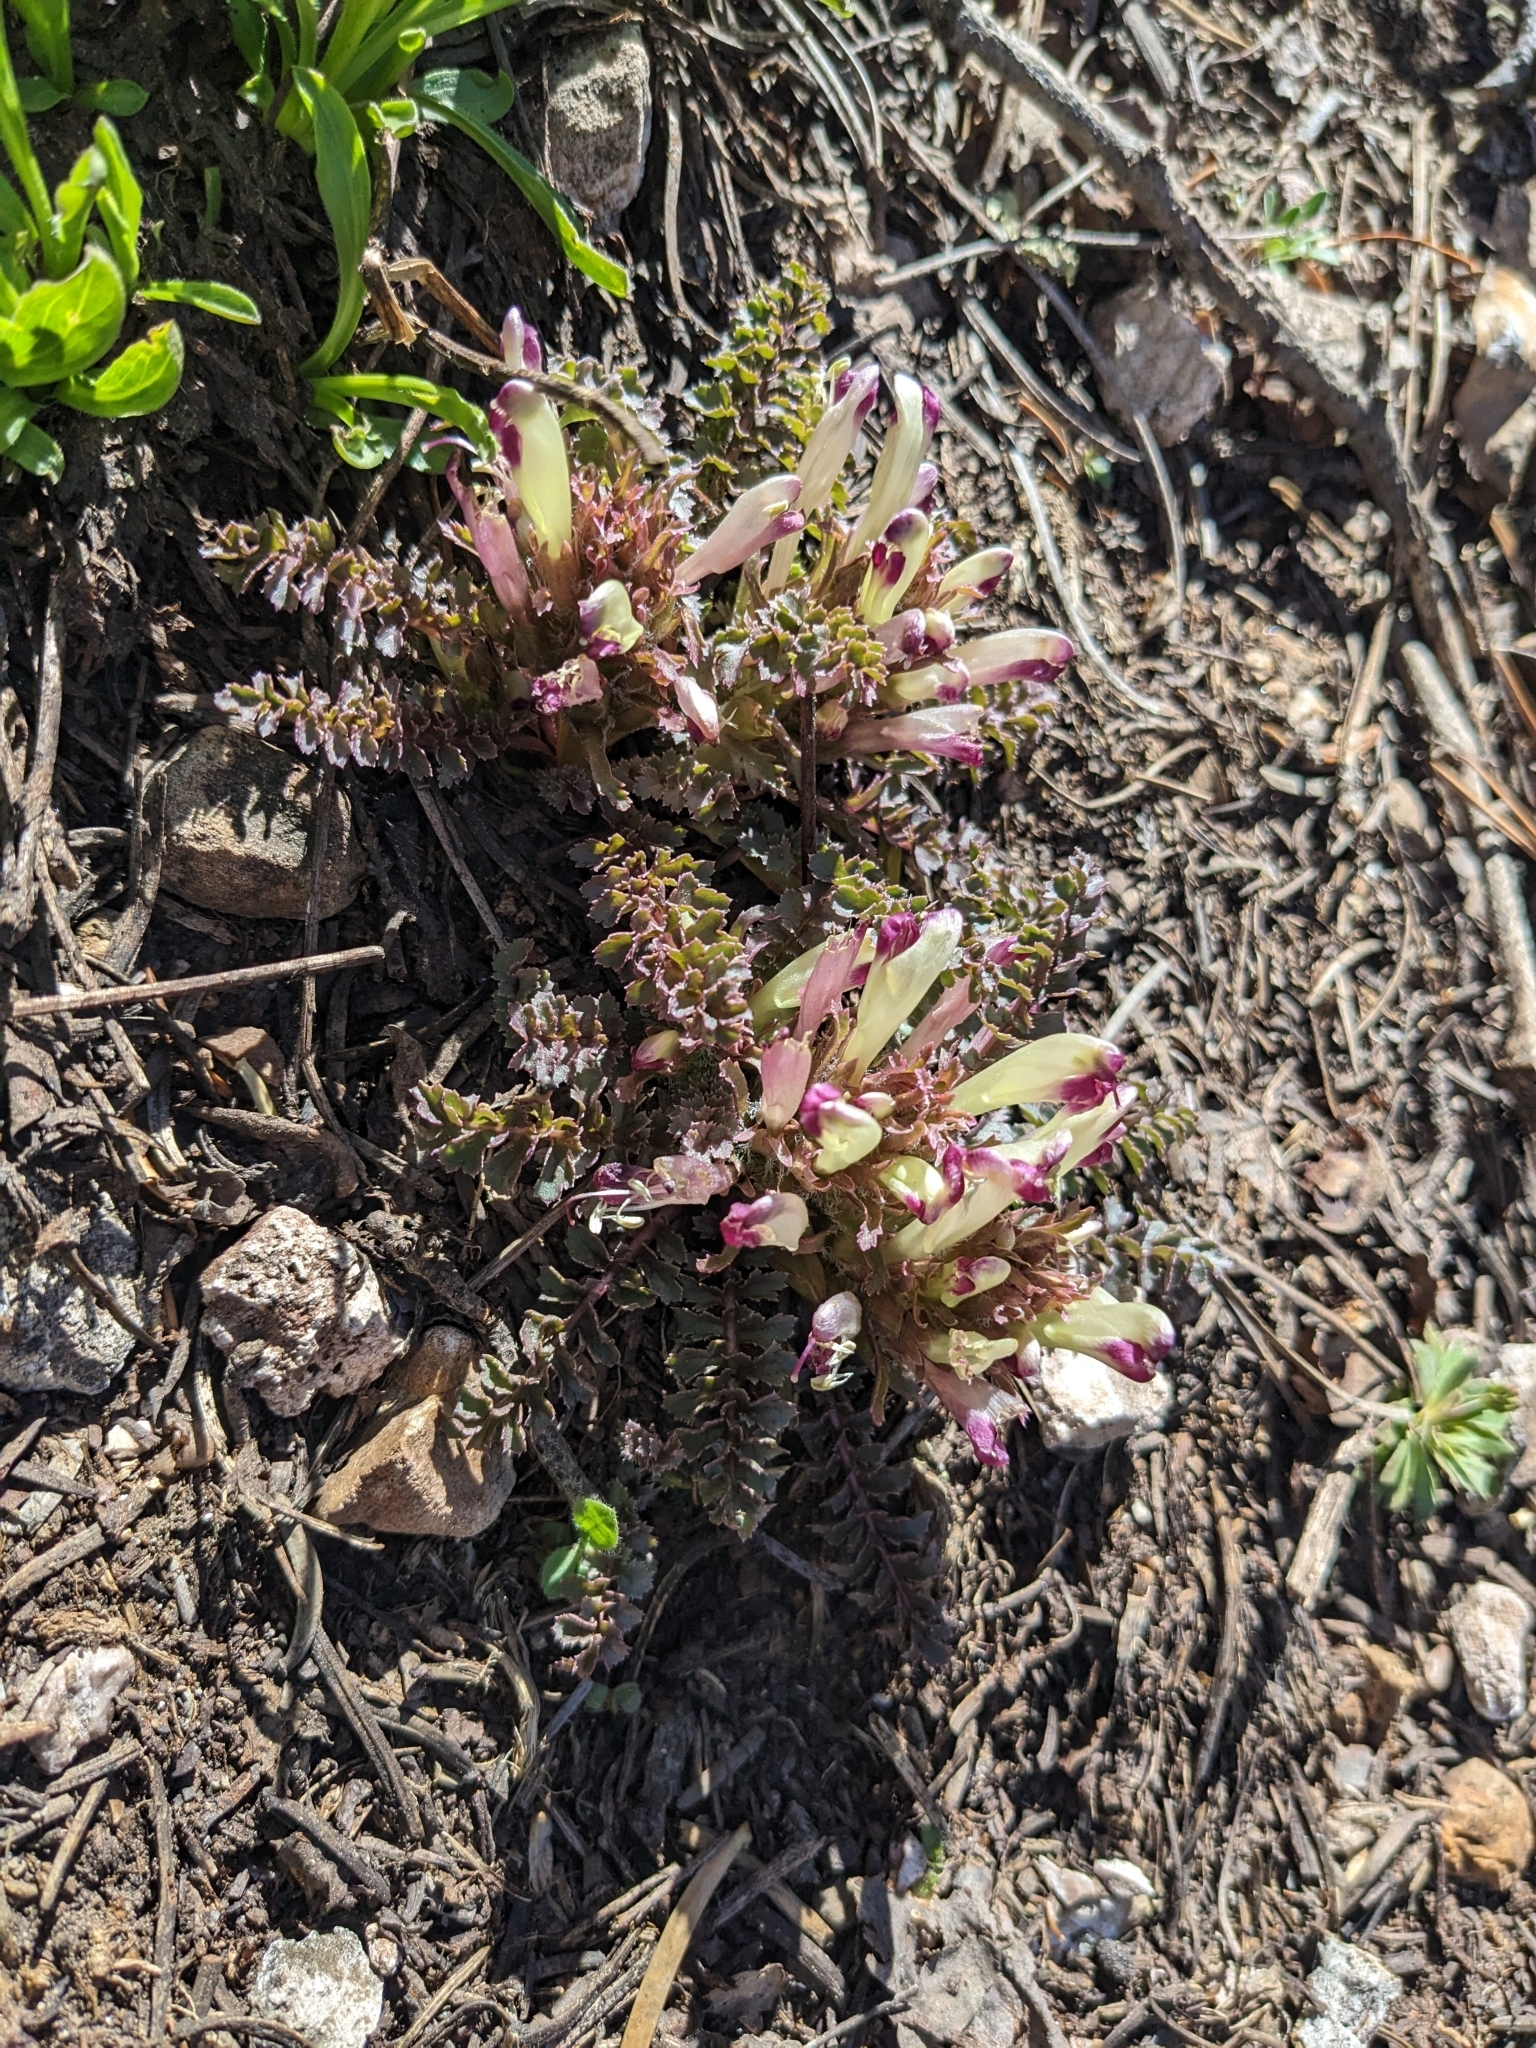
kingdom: Plantae
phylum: Tracheophyta
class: Magnoliopsida
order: Lamiales
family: Orobanchaceae
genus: Pedicularis
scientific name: Pedicularis centranthera
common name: Dwarf lousewort
